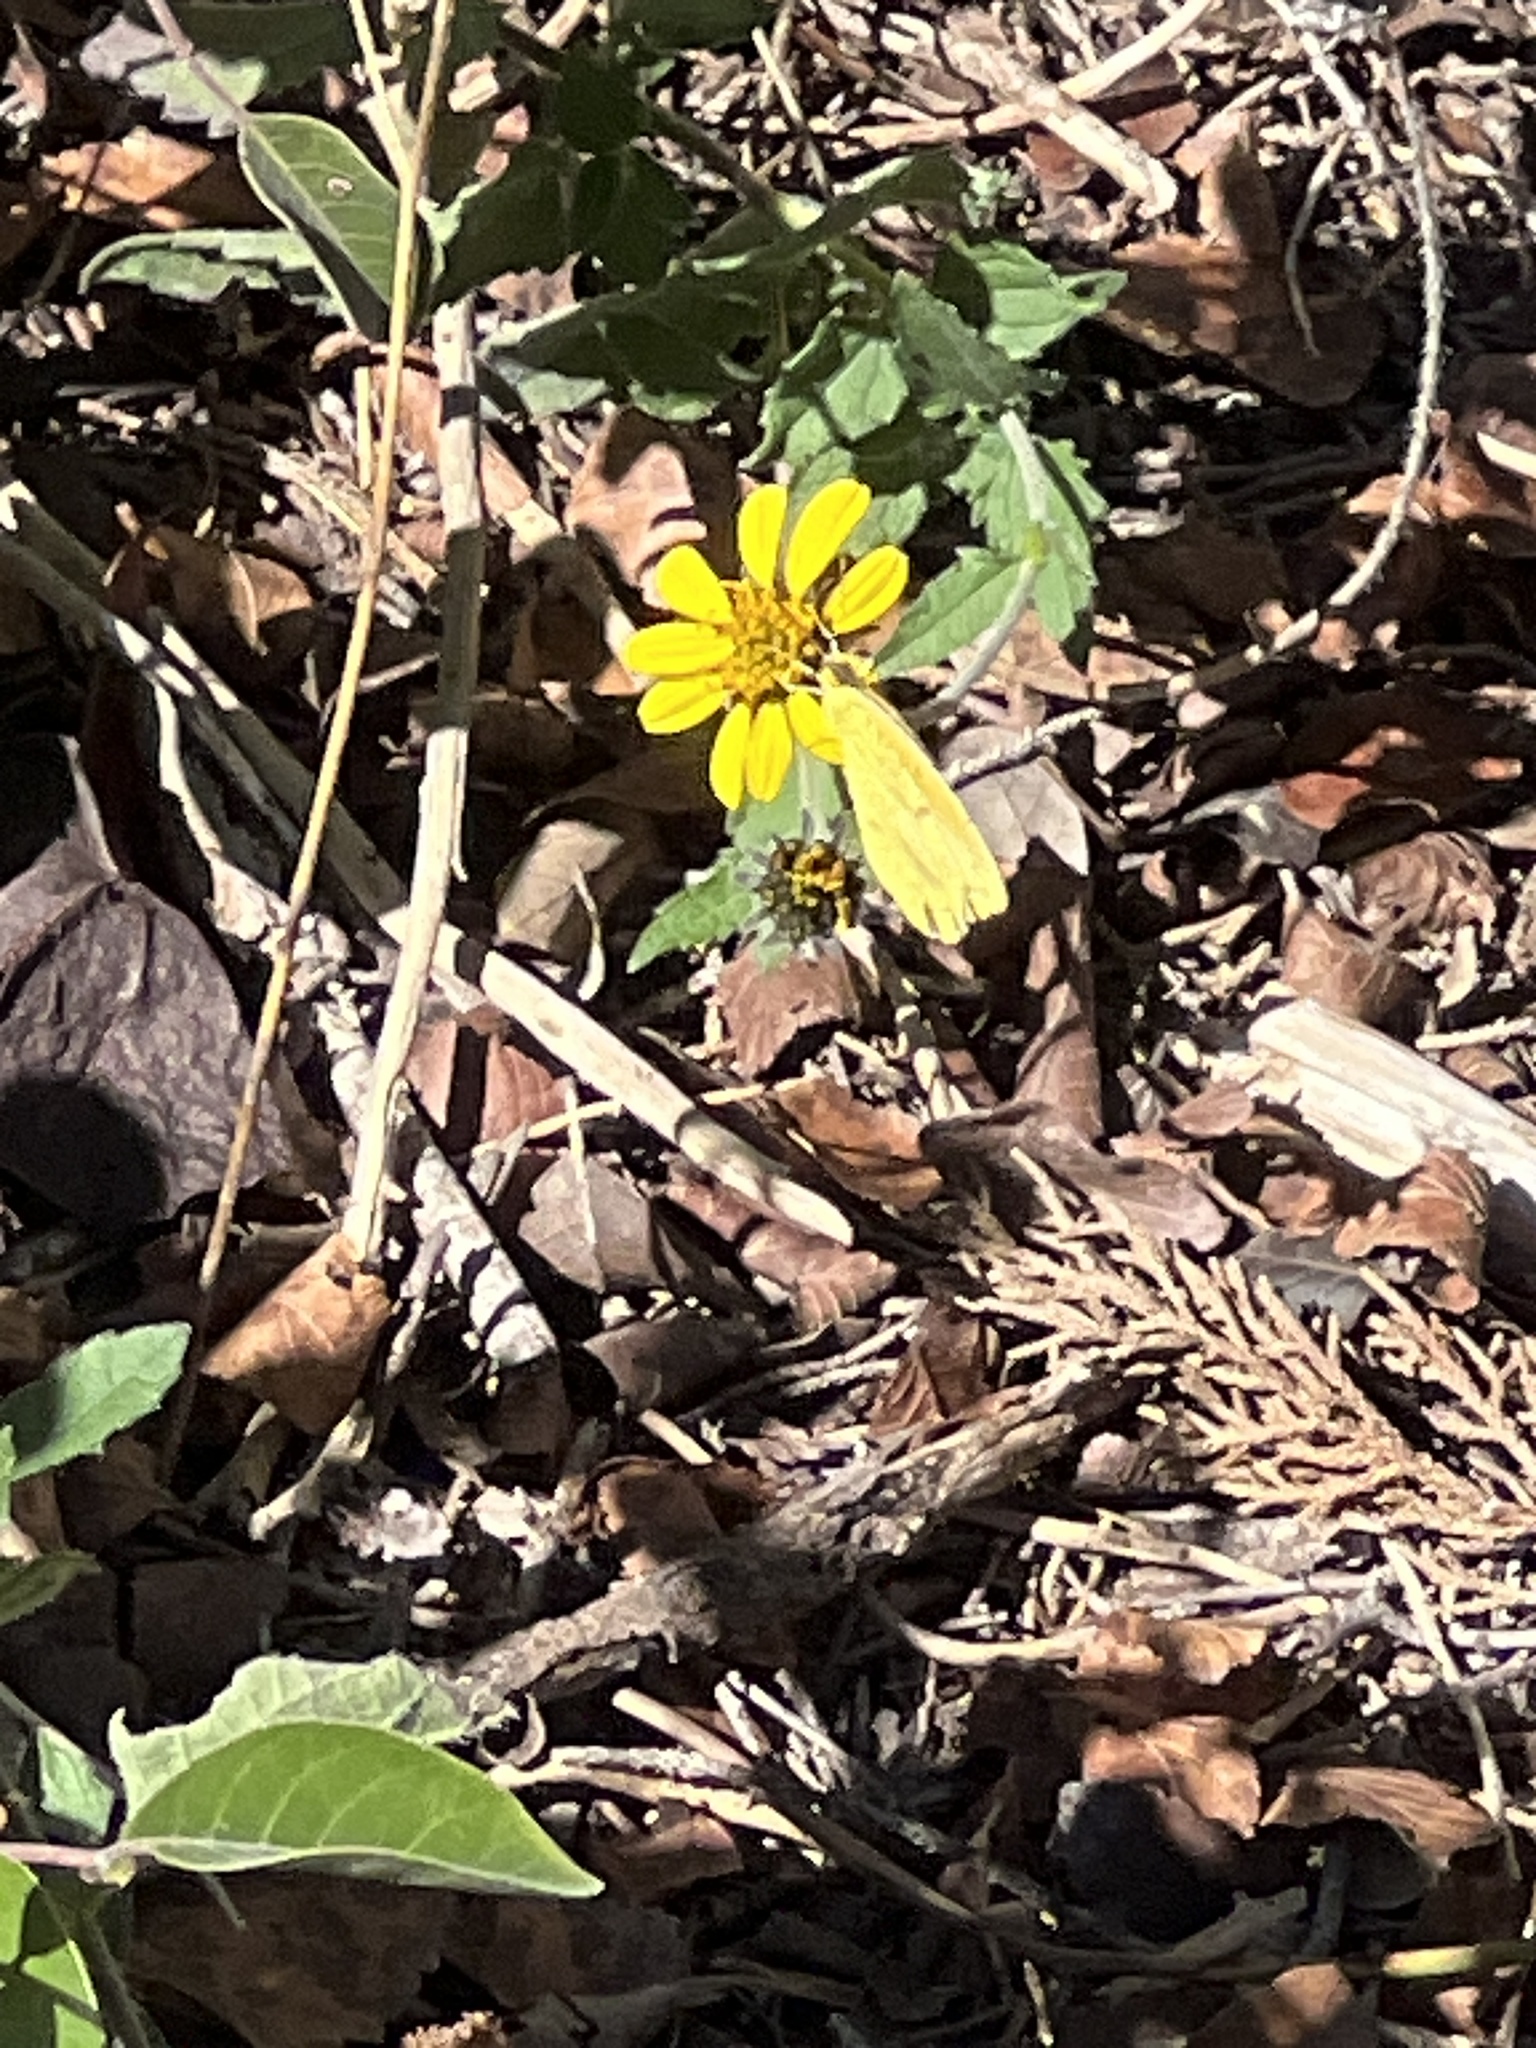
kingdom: Animalia
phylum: Arthropoda
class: Insecta
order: Lepidoptera
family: Pieridae
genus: Abaeis
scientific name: Abaeis nicippe
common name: Sleepy orange
